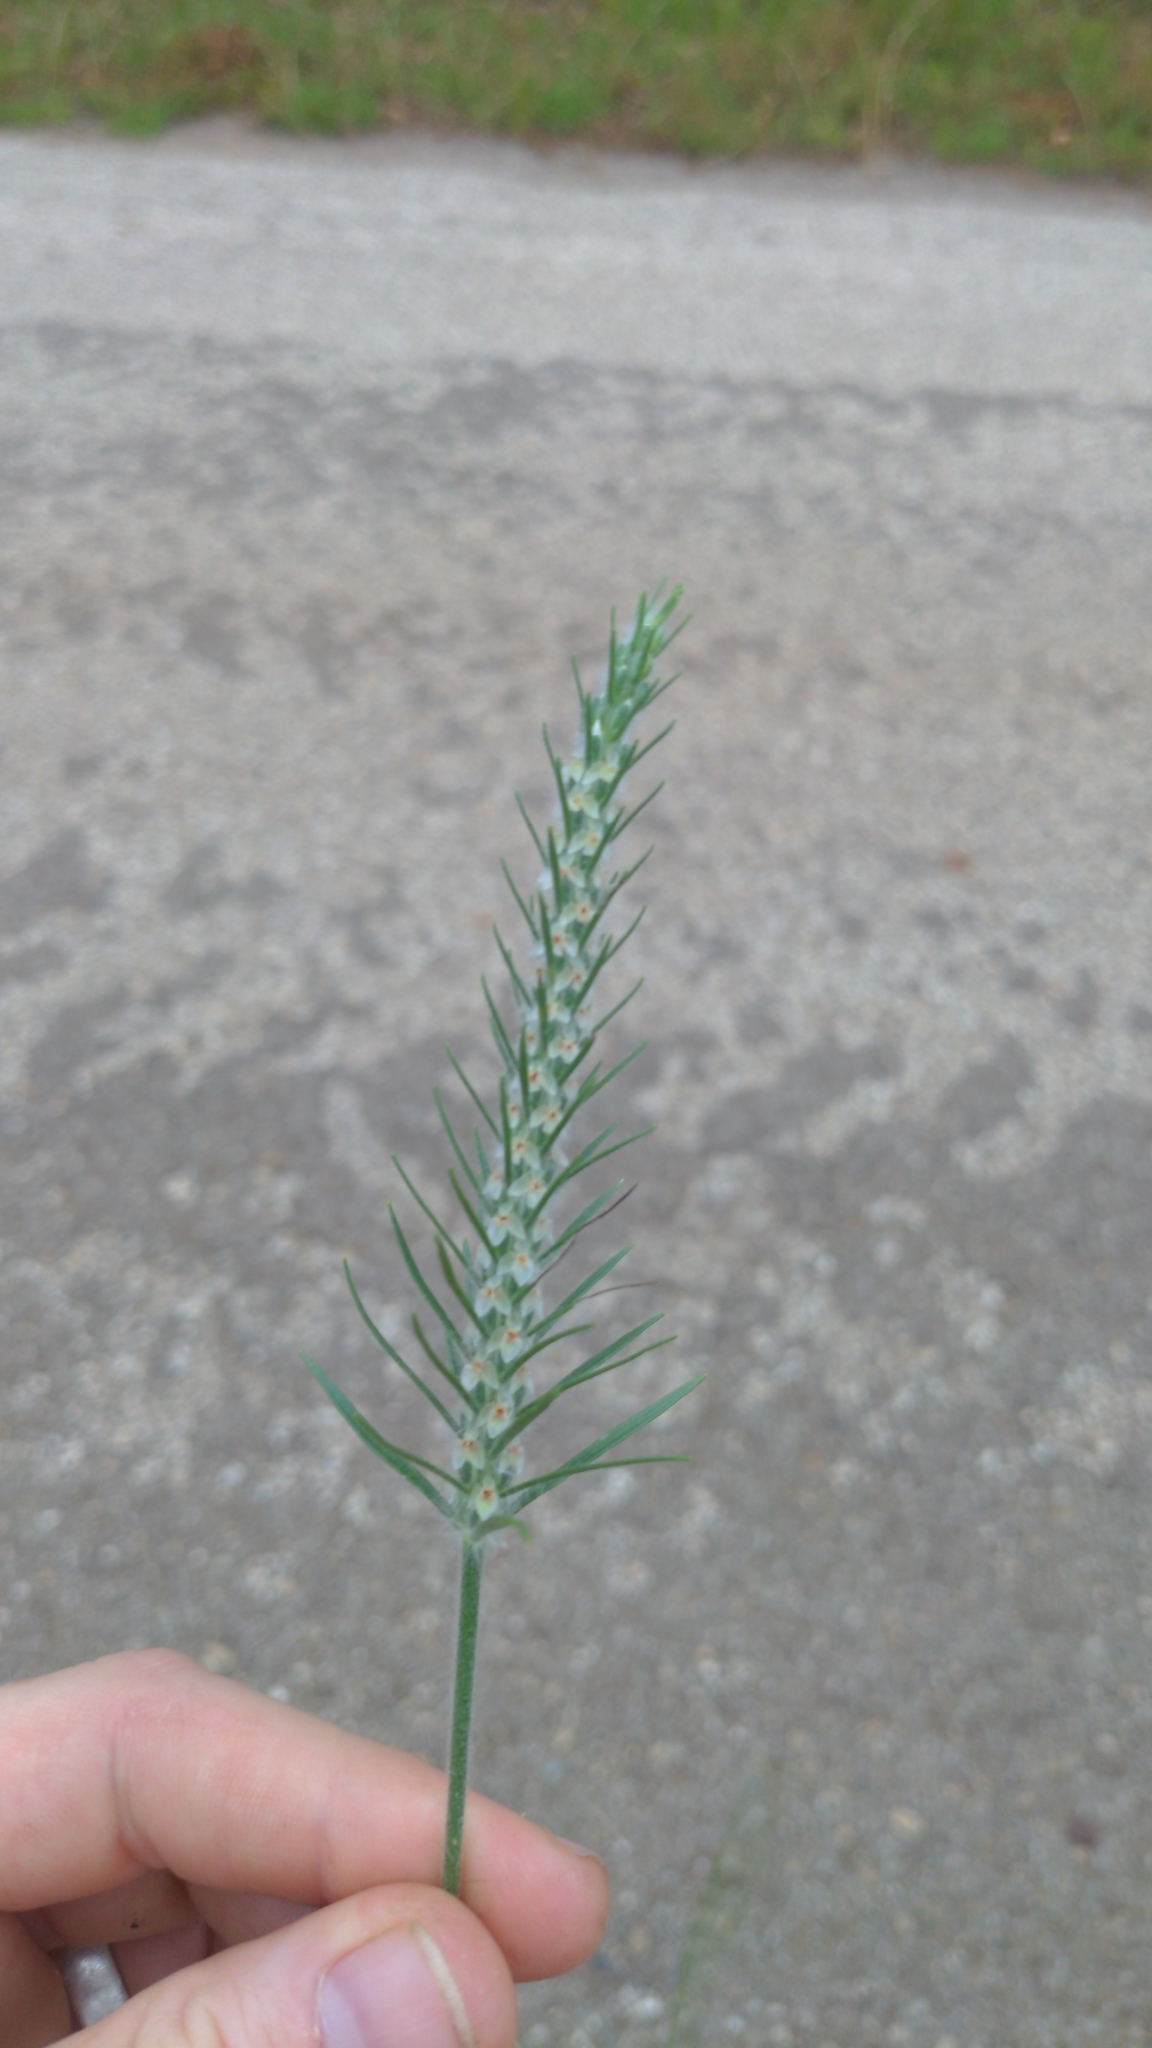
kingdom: Plantae
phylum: Tracheophyta
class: Magnoliopsida
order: Lamiales
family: Plantaginaceae
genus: Plantago
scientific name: Plantago aristata
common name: Bracted plantain
